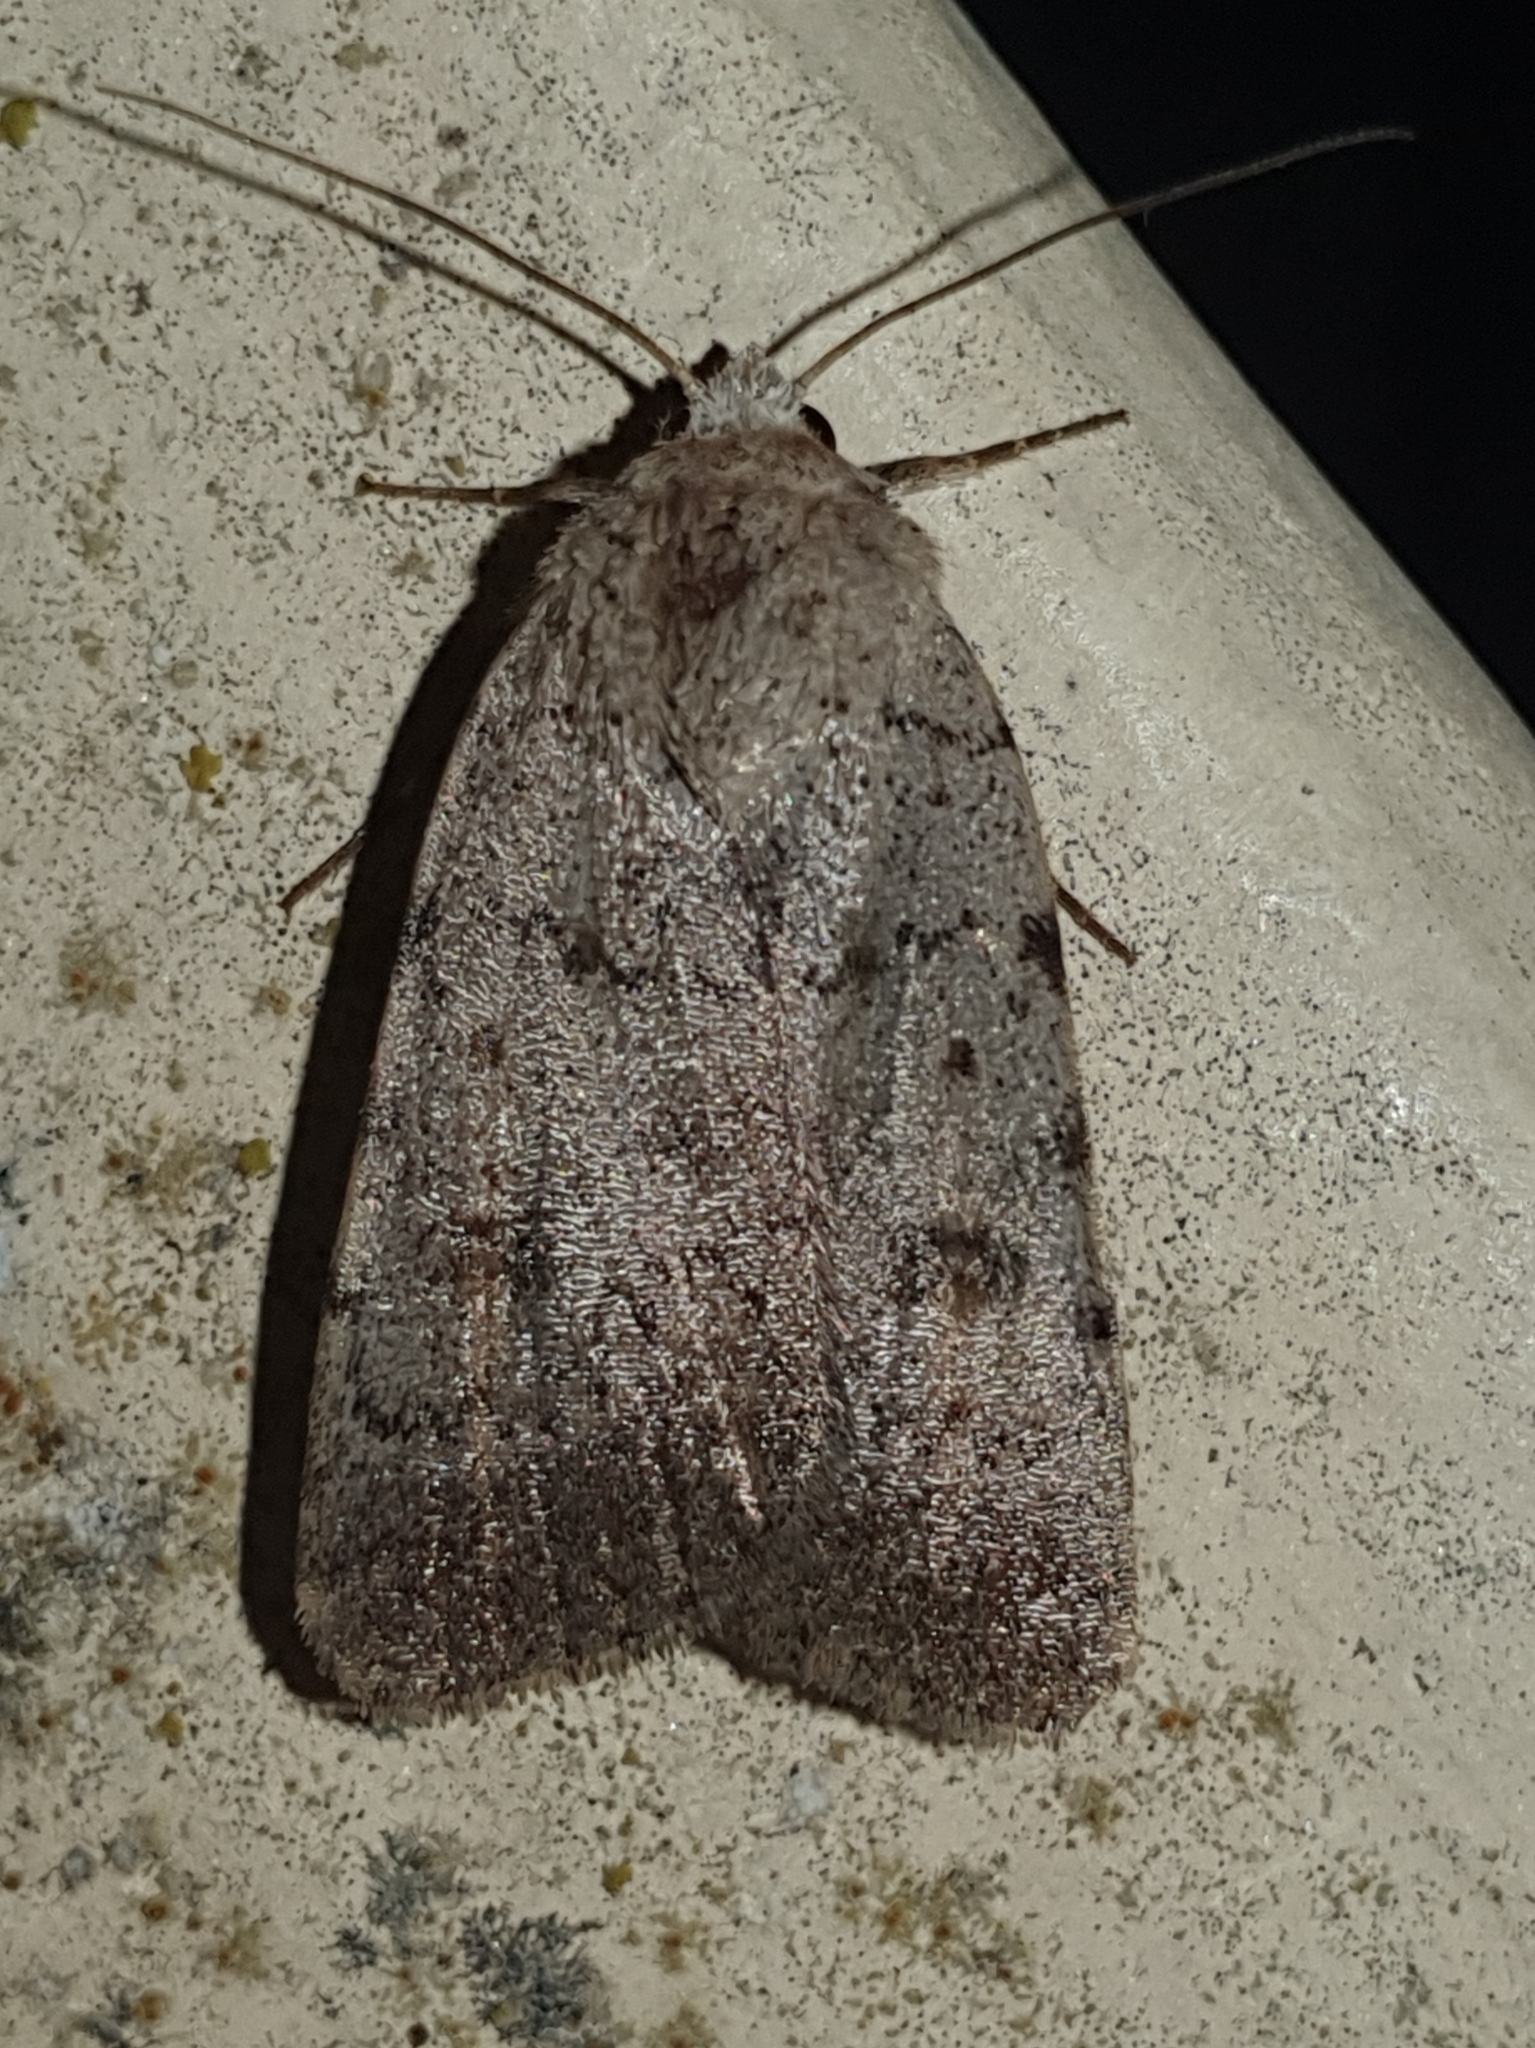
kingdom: Animalia
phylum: Arthropoda
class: Insecta
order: Lepidoptera
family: Noctuidae
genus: Caradrina
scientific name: Caradrina selini
